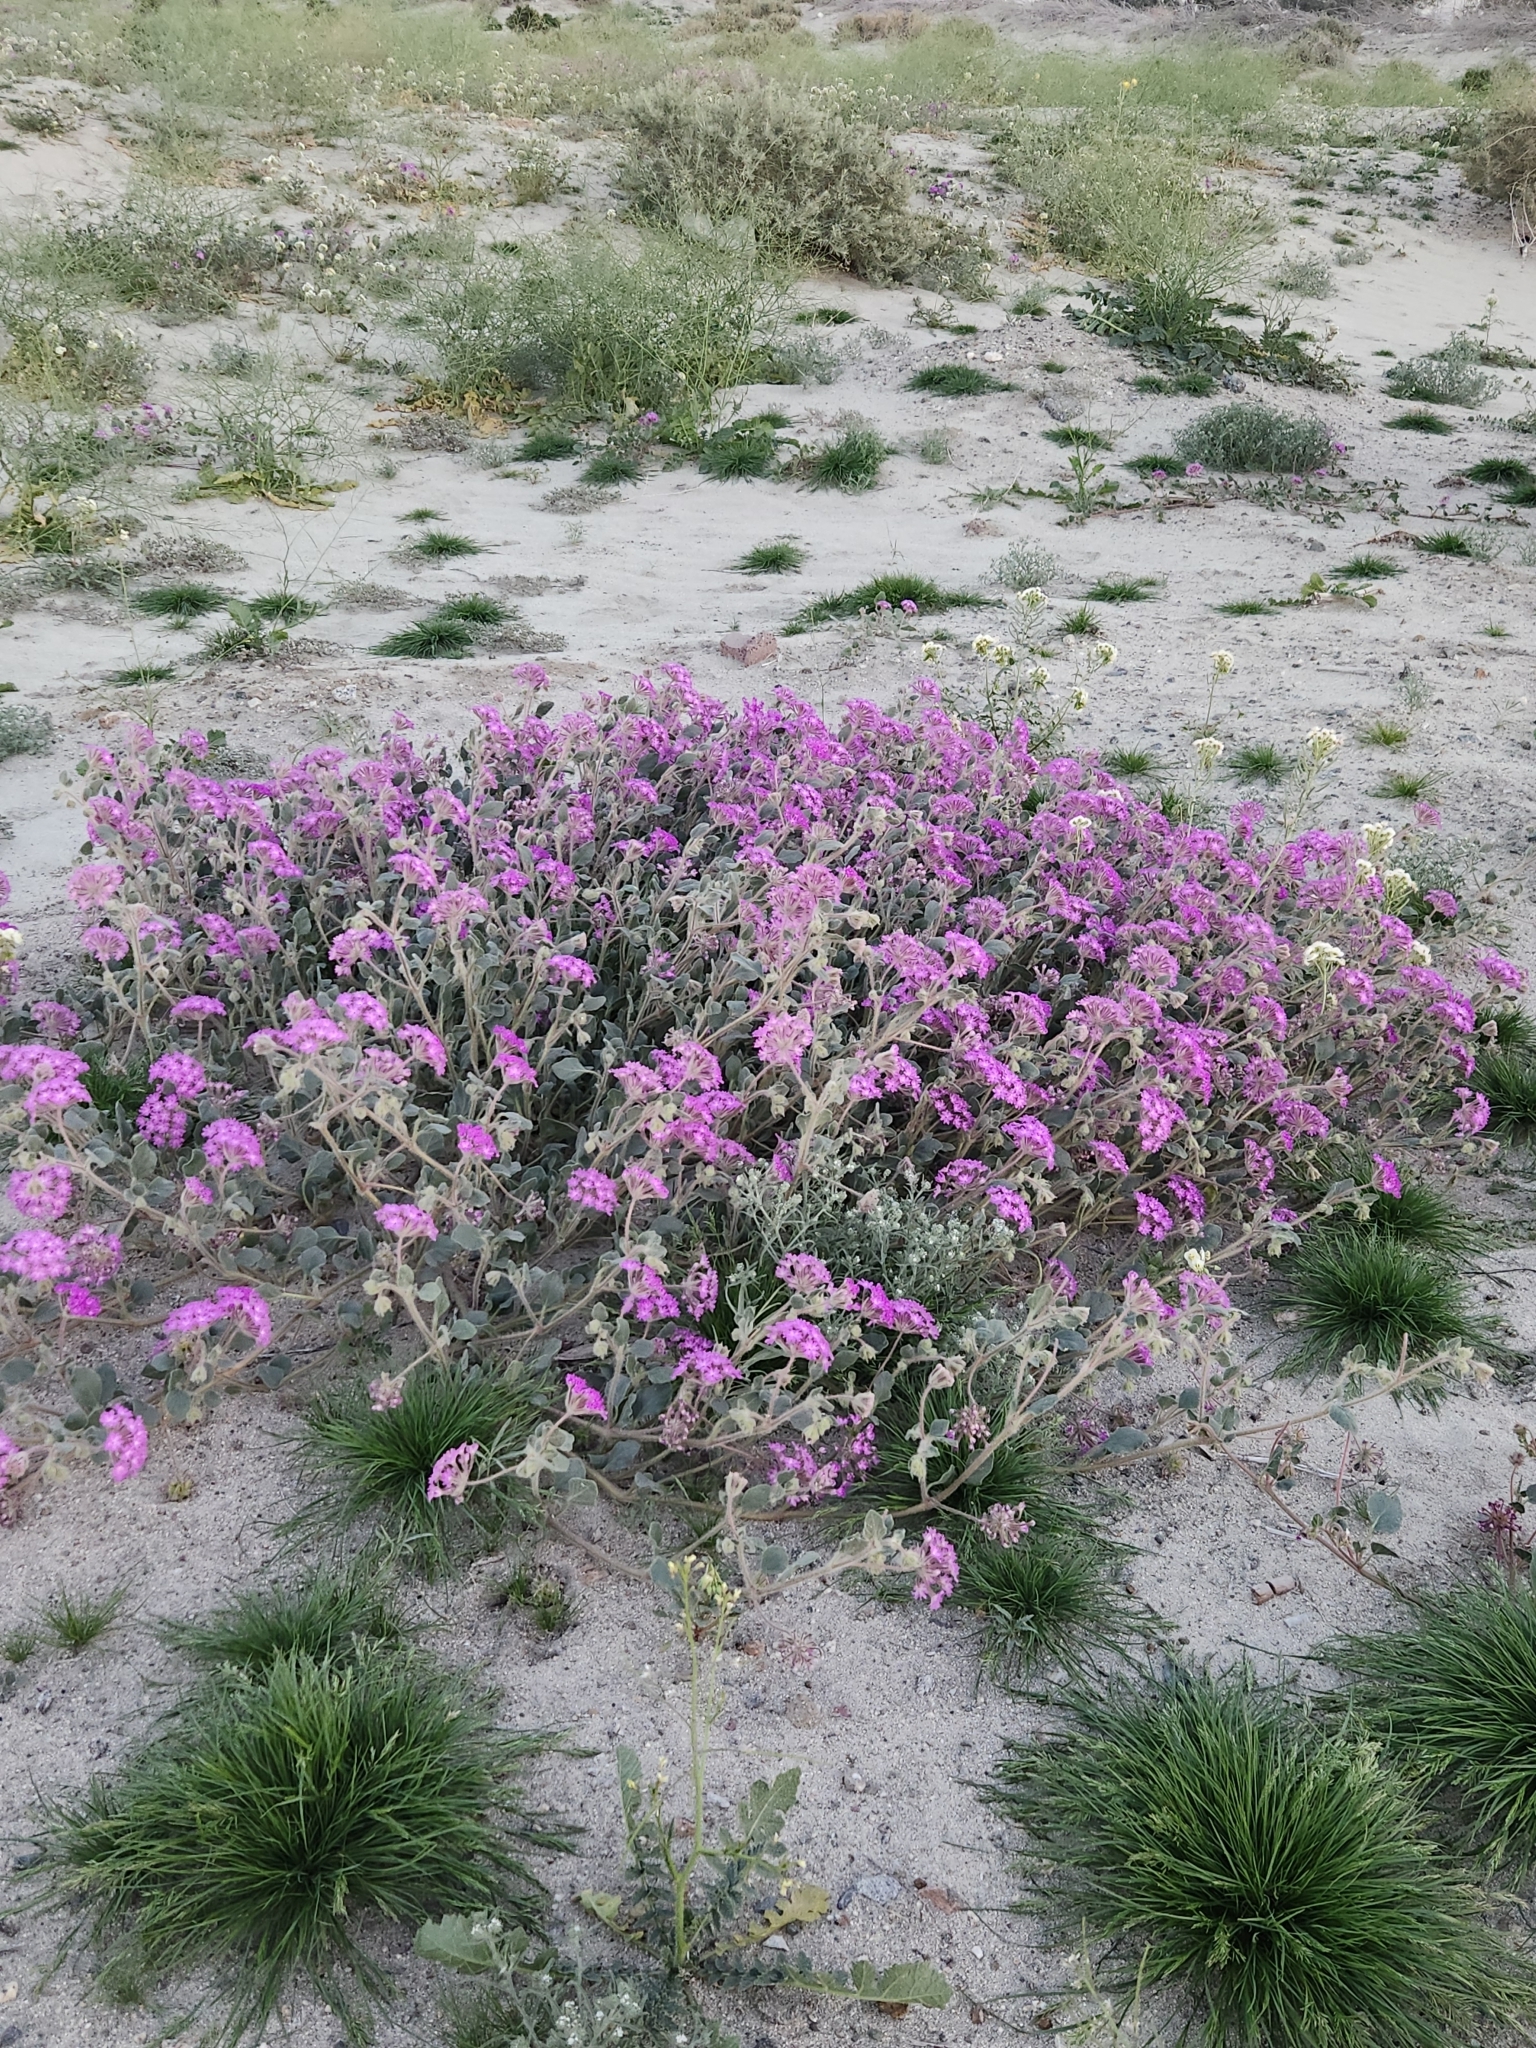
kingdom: Plantae
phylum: Tracheophyta
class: Magnoliopsida
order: Caryophyllales
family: Nyctaginaceae
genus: Abronia
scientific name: Abronia villosa
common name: Desert sand-verbena
